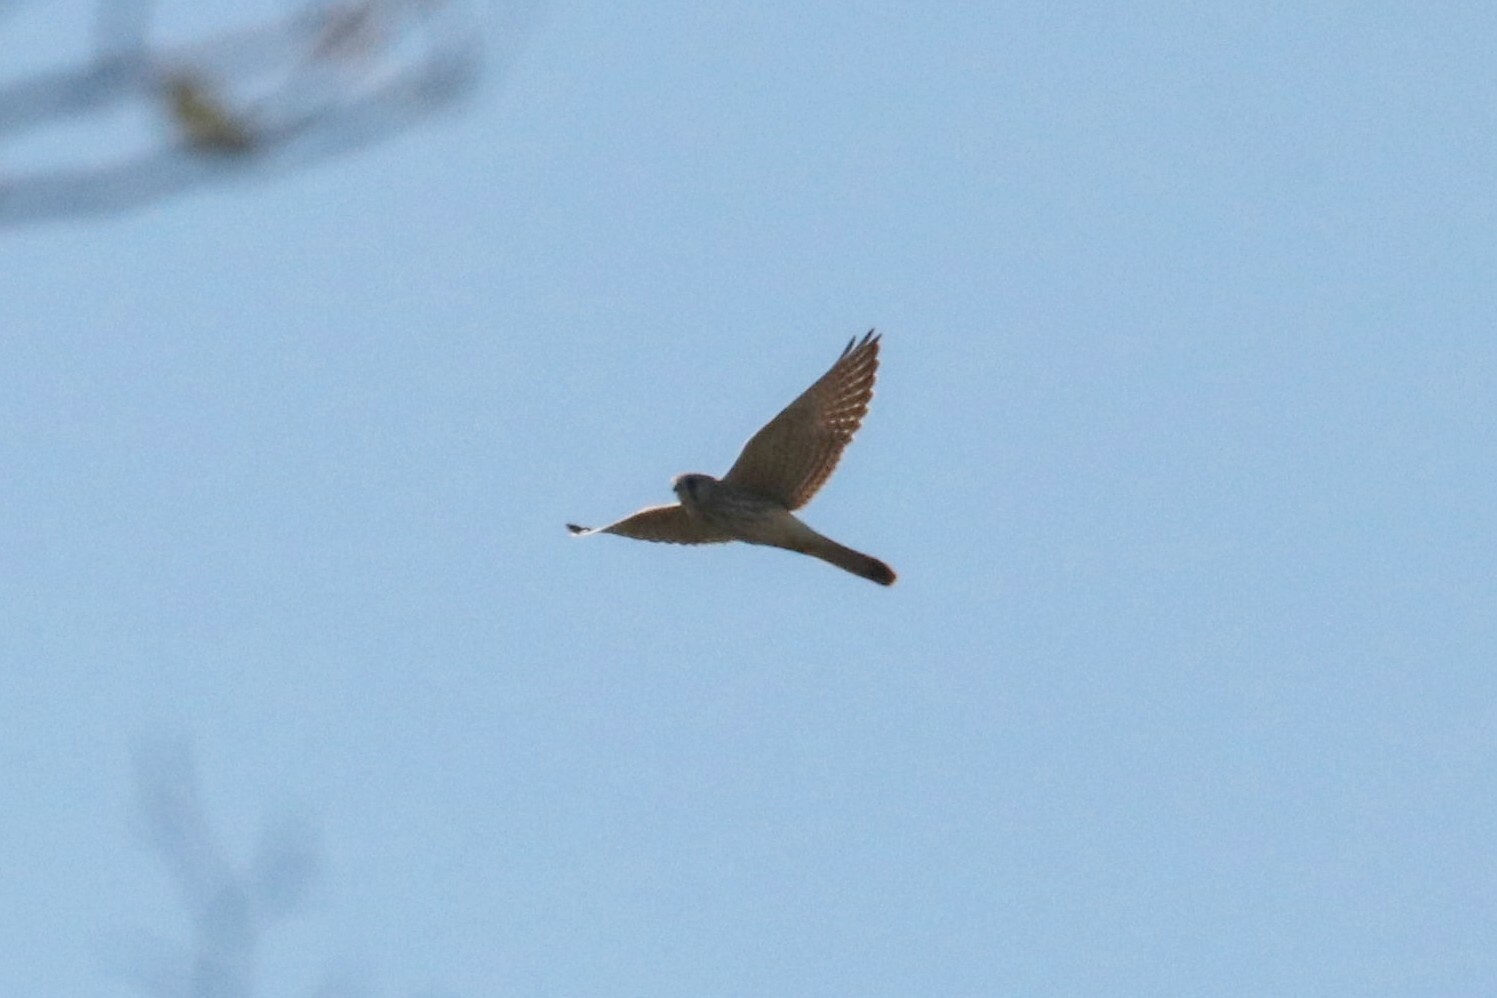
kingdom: Animalia
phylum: Chordata
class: Aves
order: Falconiformes
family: Falconidae
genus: Falco
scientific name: Falco tinnunculus
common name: Common kestrel
